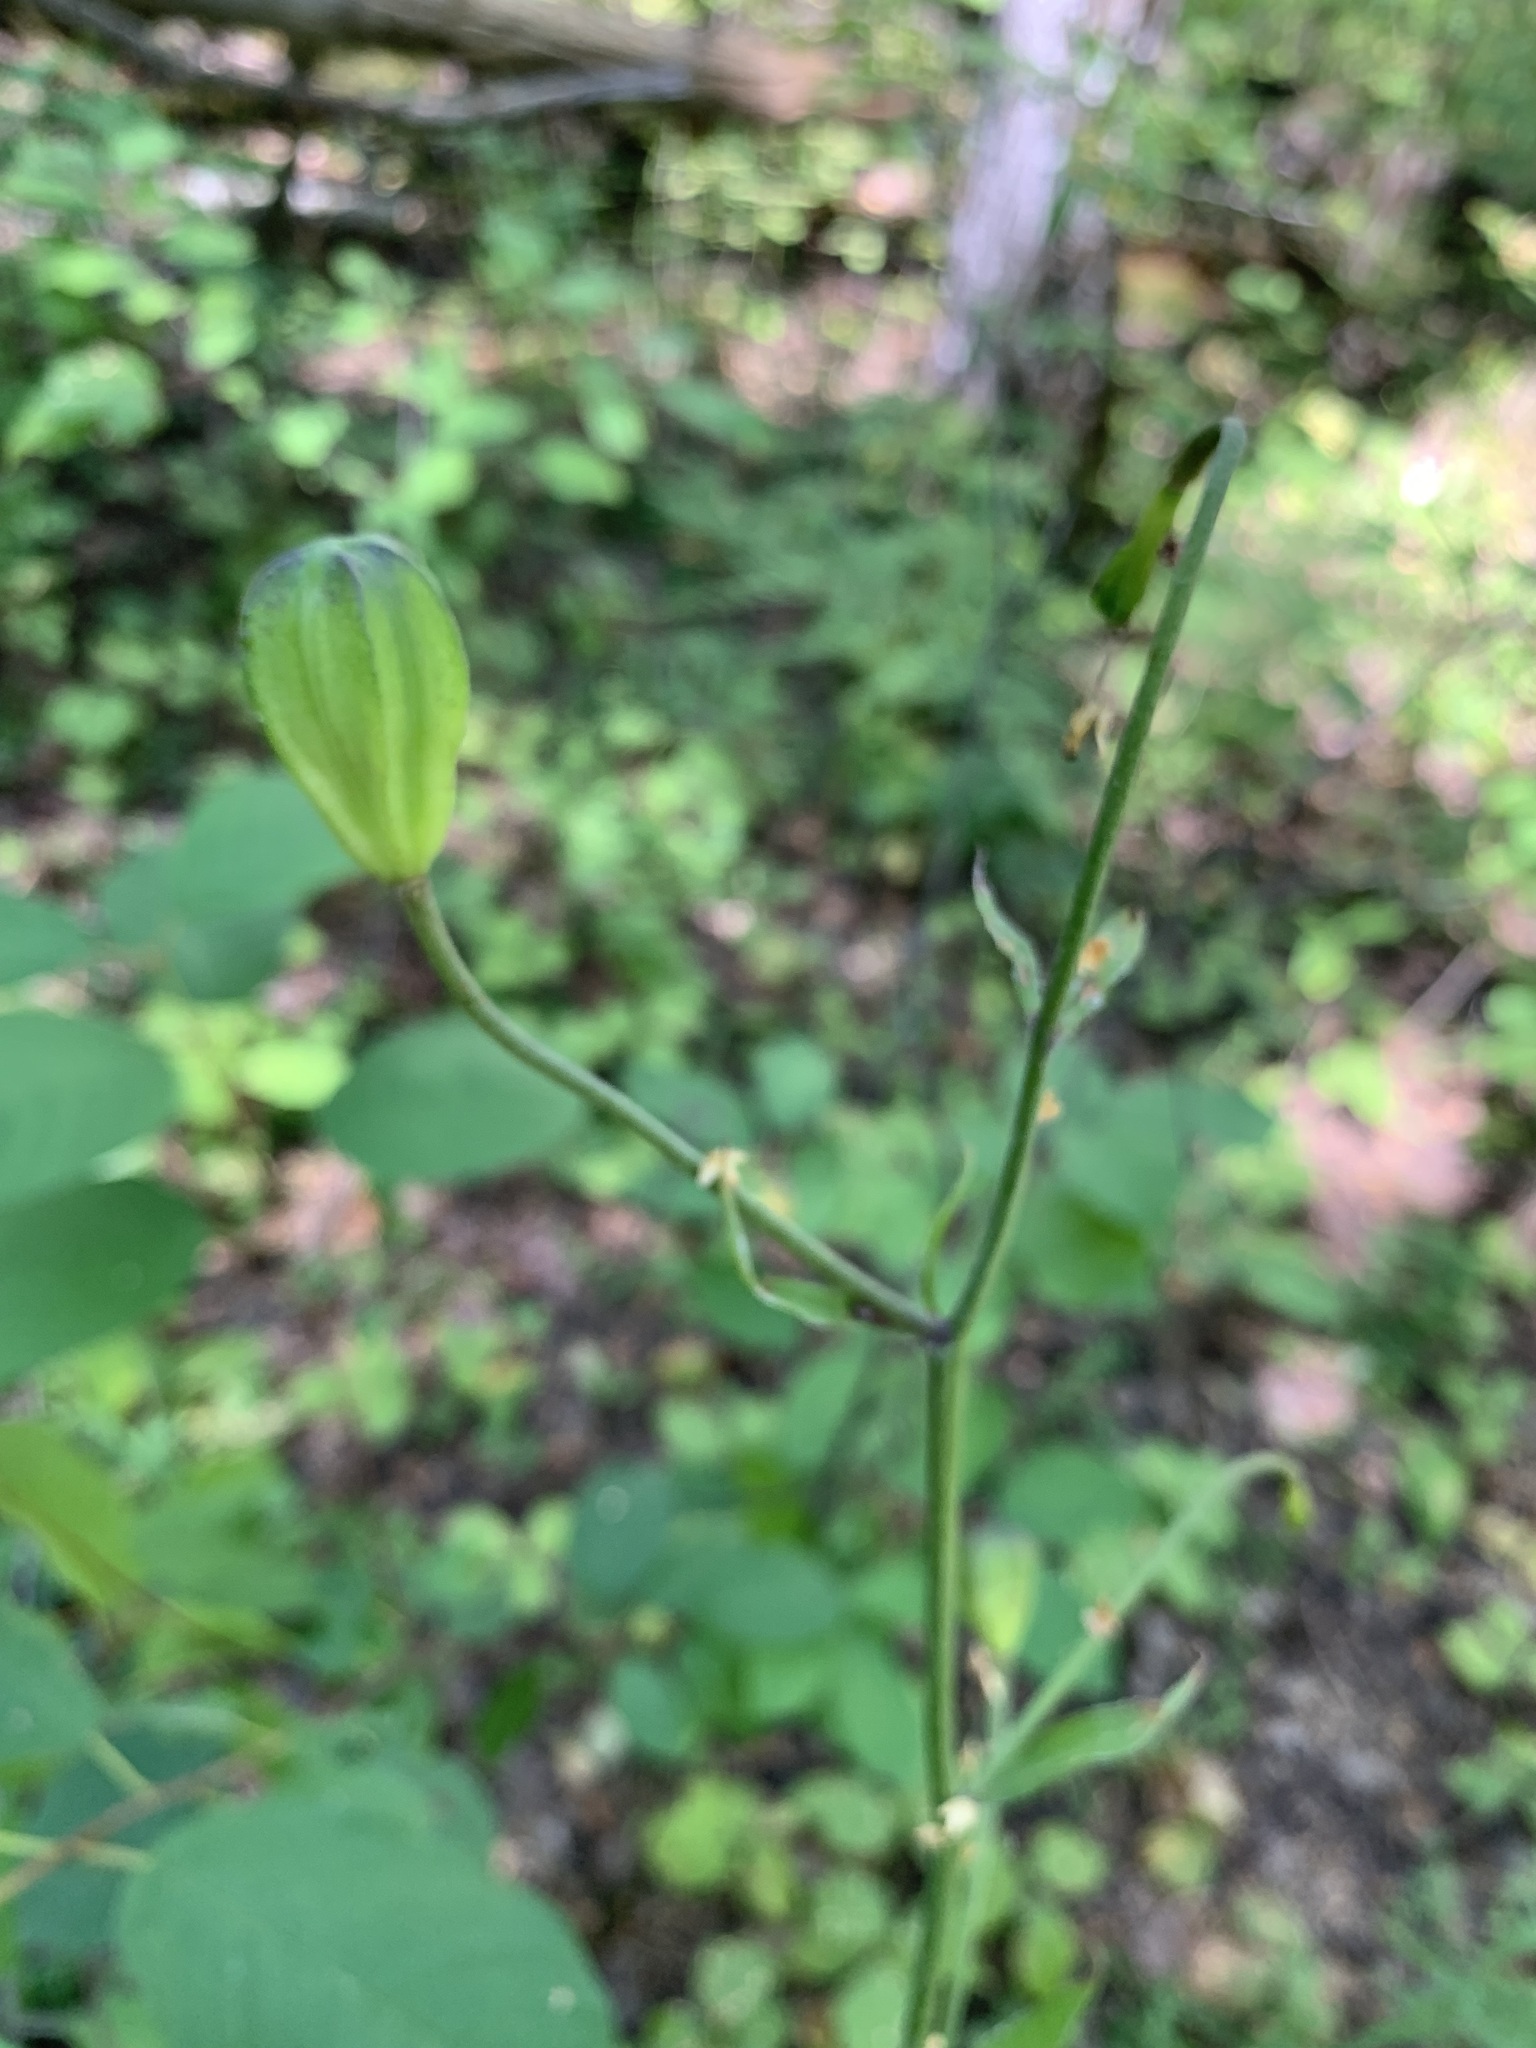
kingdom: Plantae
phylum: Tracheophyta
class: Liliopsida
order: Liliales
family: Liliaceae
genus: Lilium
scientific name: Lilium martagon
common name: Martagon lily
